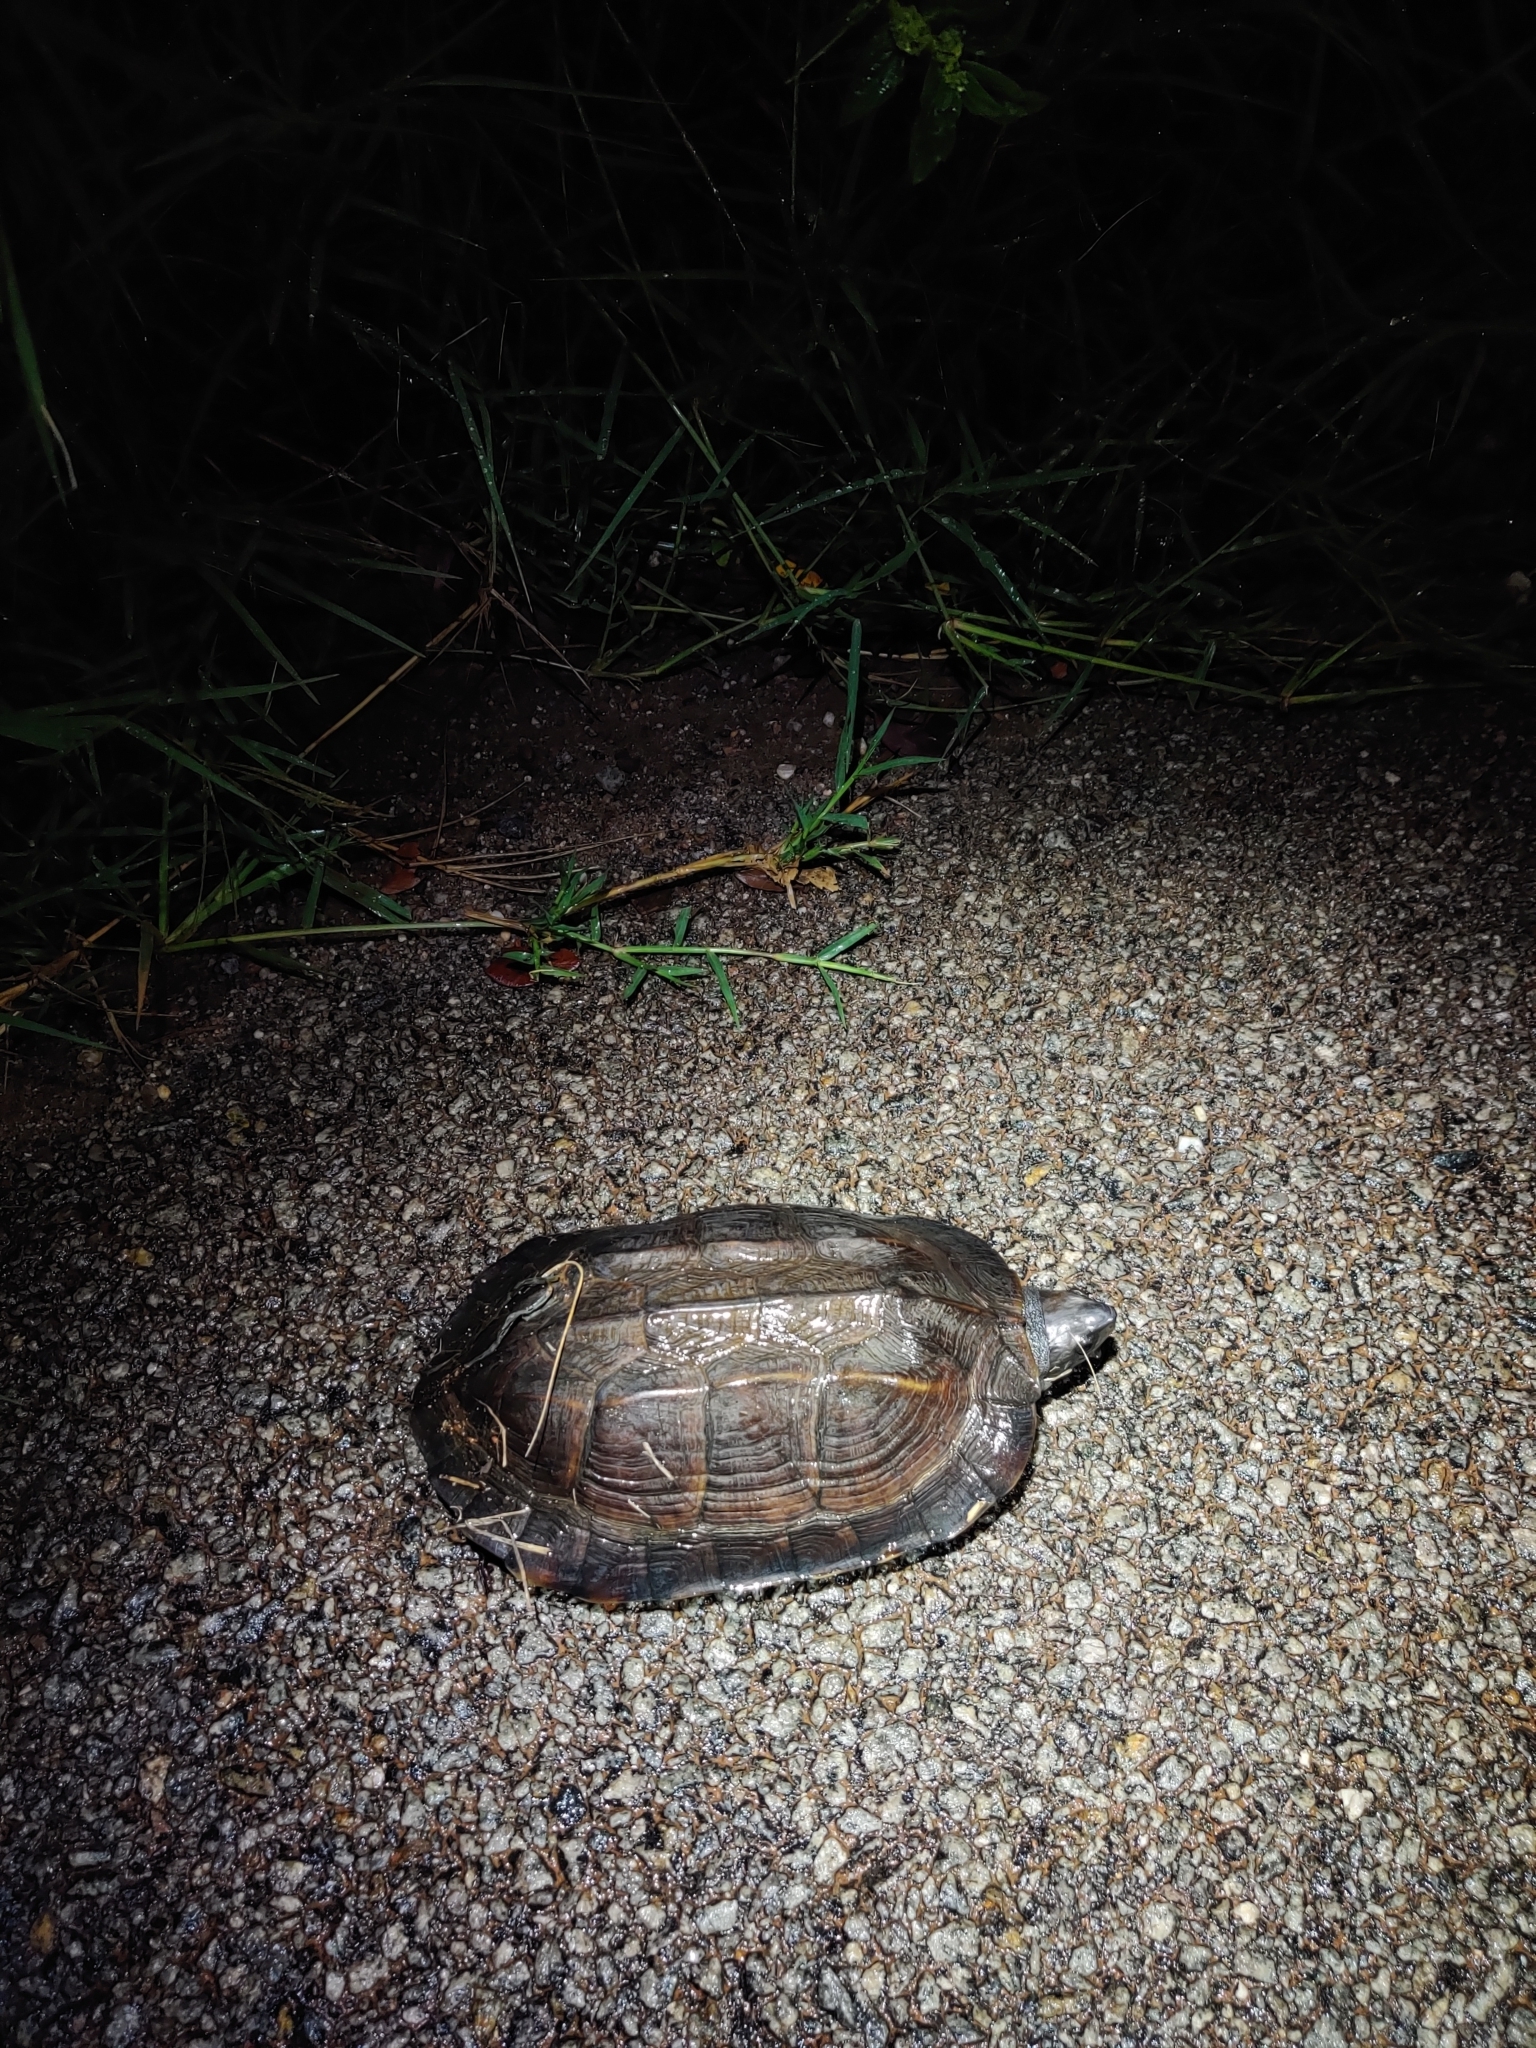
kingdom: Animalia
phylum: Chordata
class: Testudines
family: Geoemydidae
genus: Melanochelys
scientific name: Melanochelys trijuga
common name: Indian black turtle
